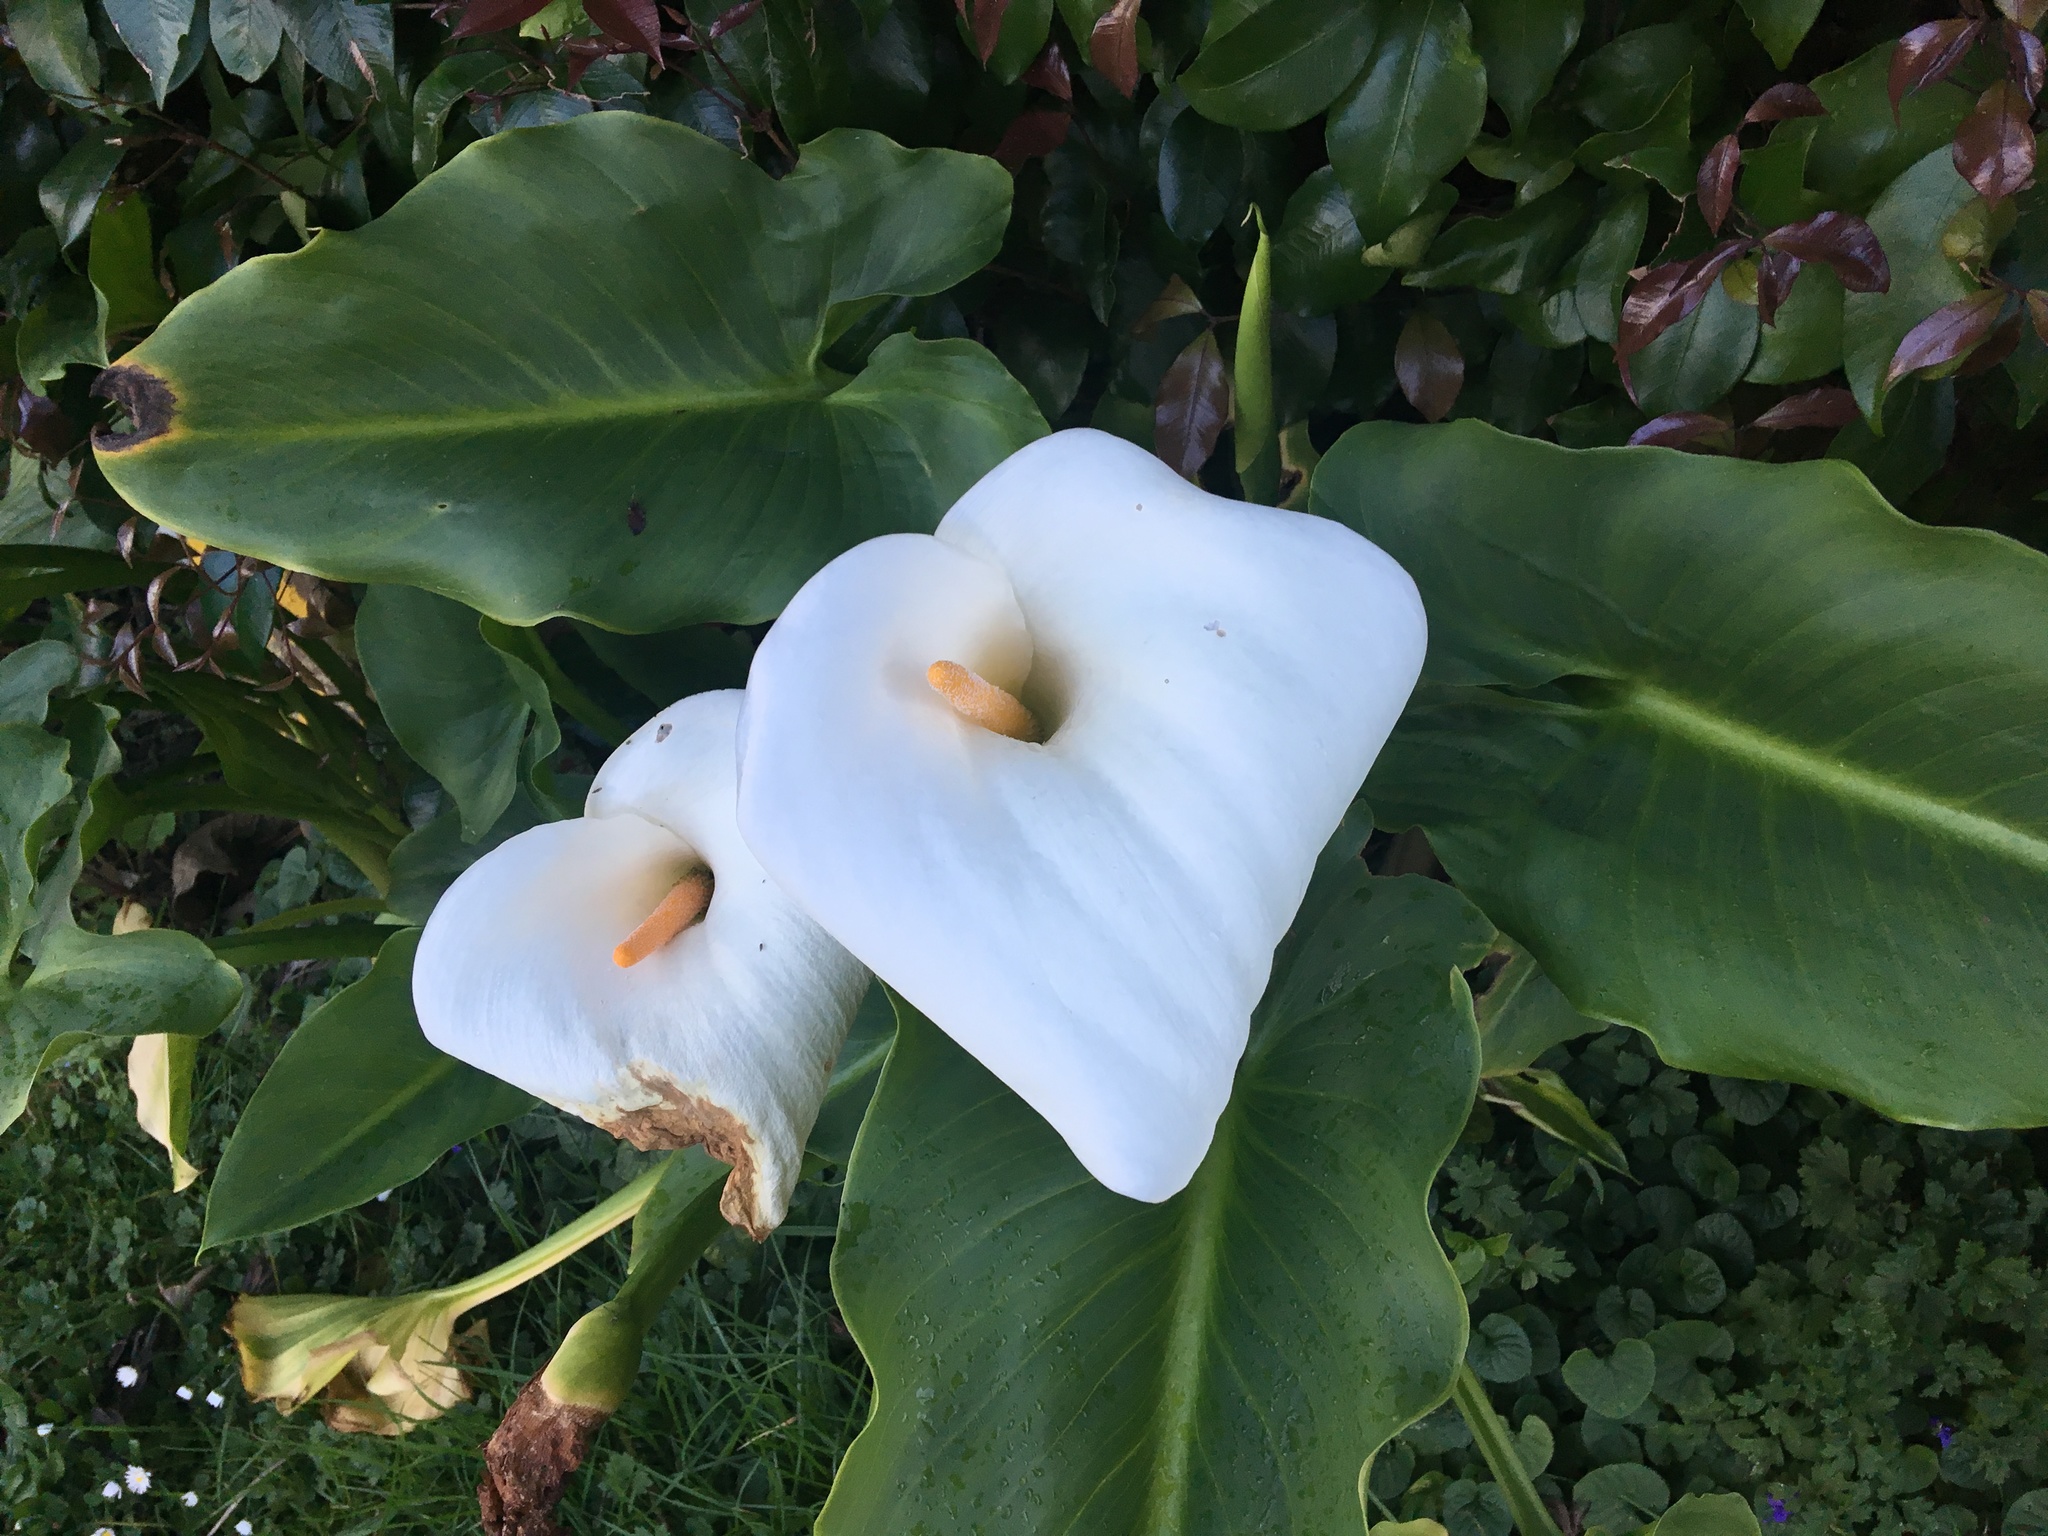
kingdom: Plantae
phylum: Tracheophyta
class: Liliopsida
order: Alismatales
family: Araceae
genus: Zantedeschia
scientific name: Zantedeschia aethiopica
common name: Altar-lily
